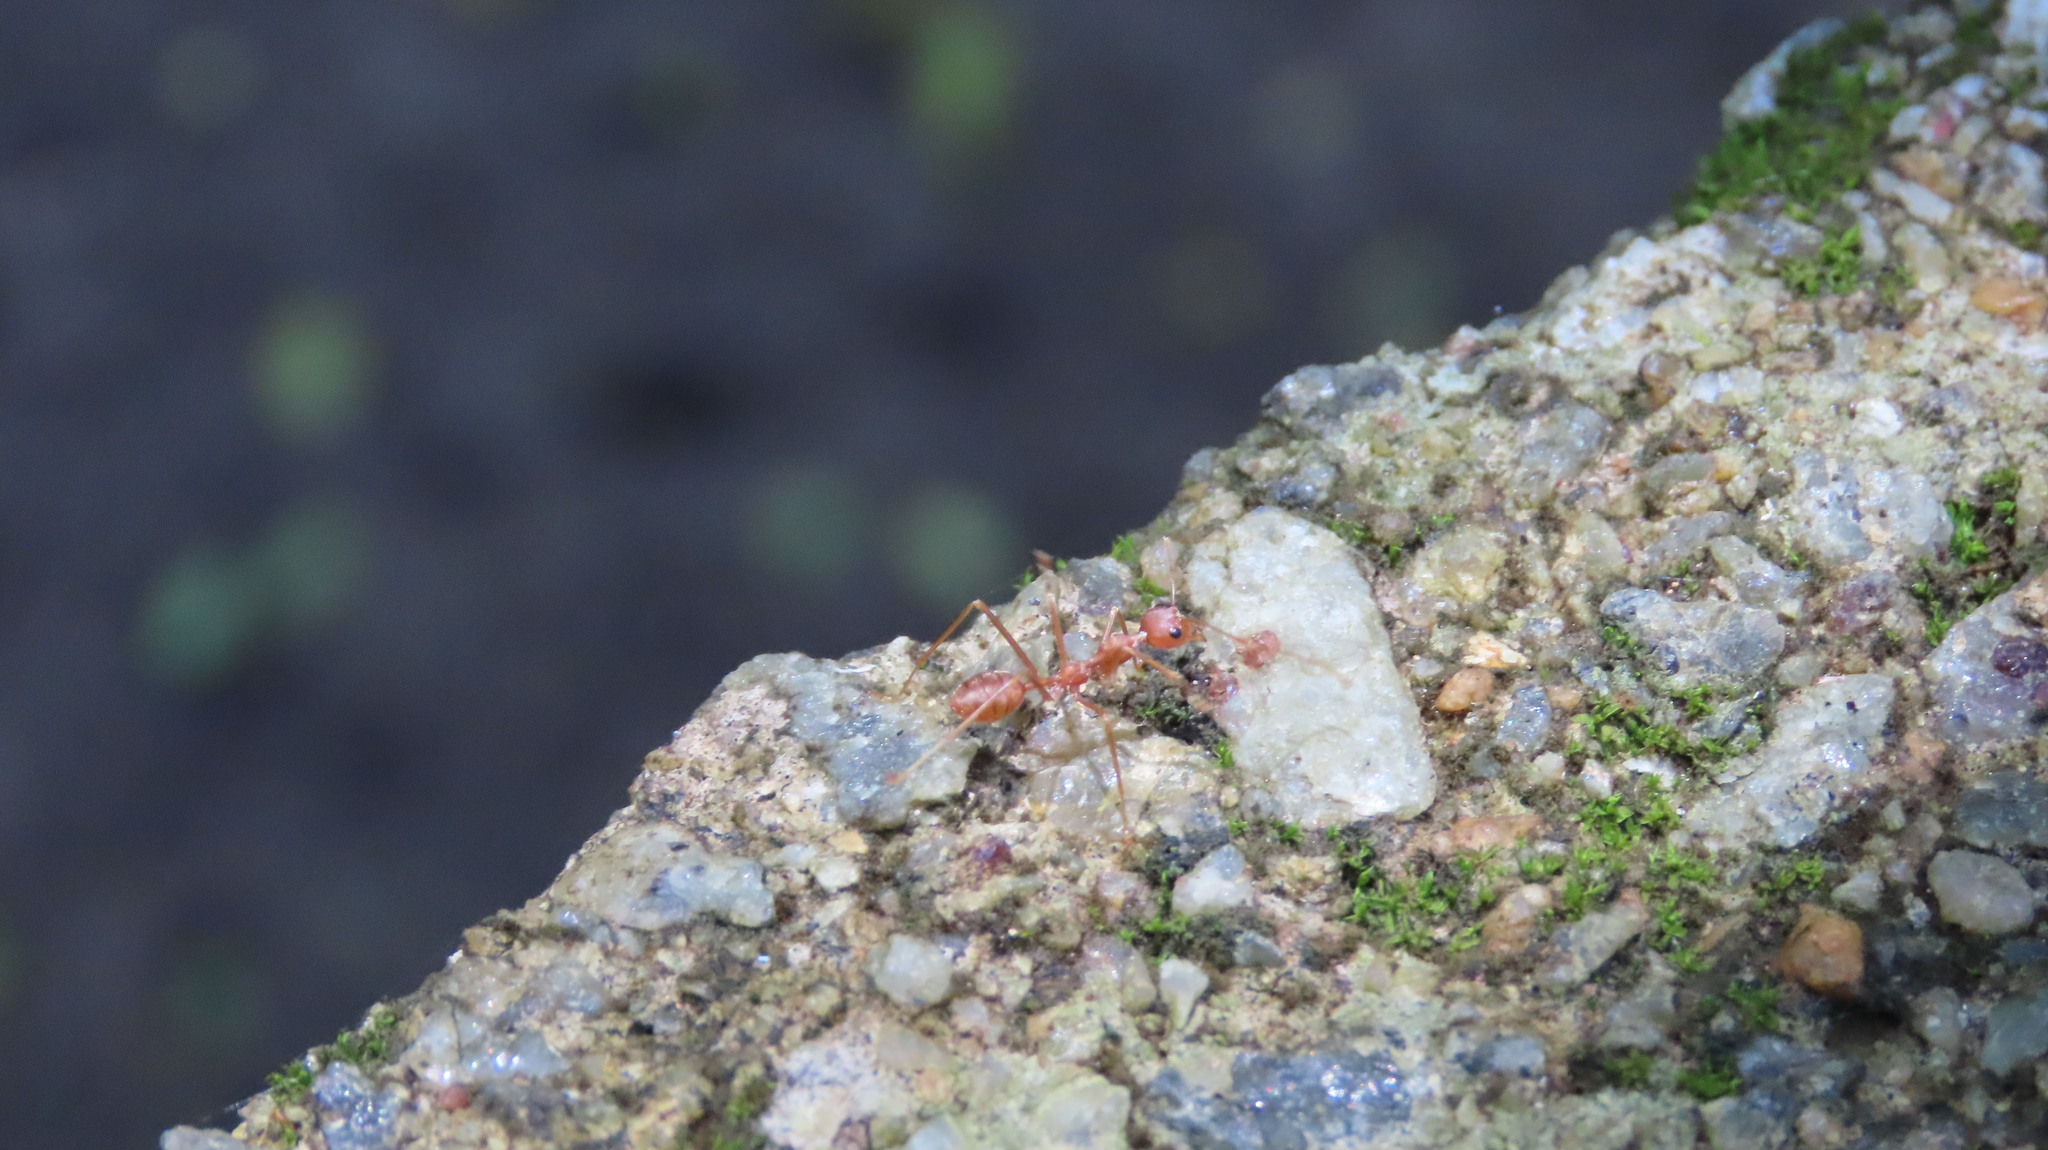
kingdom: Animalia
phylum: Arthropoda
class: Insecta
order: Hymenoptera
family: Formicidae
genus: Oecophylla
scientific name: Oecophylla smaragdina
